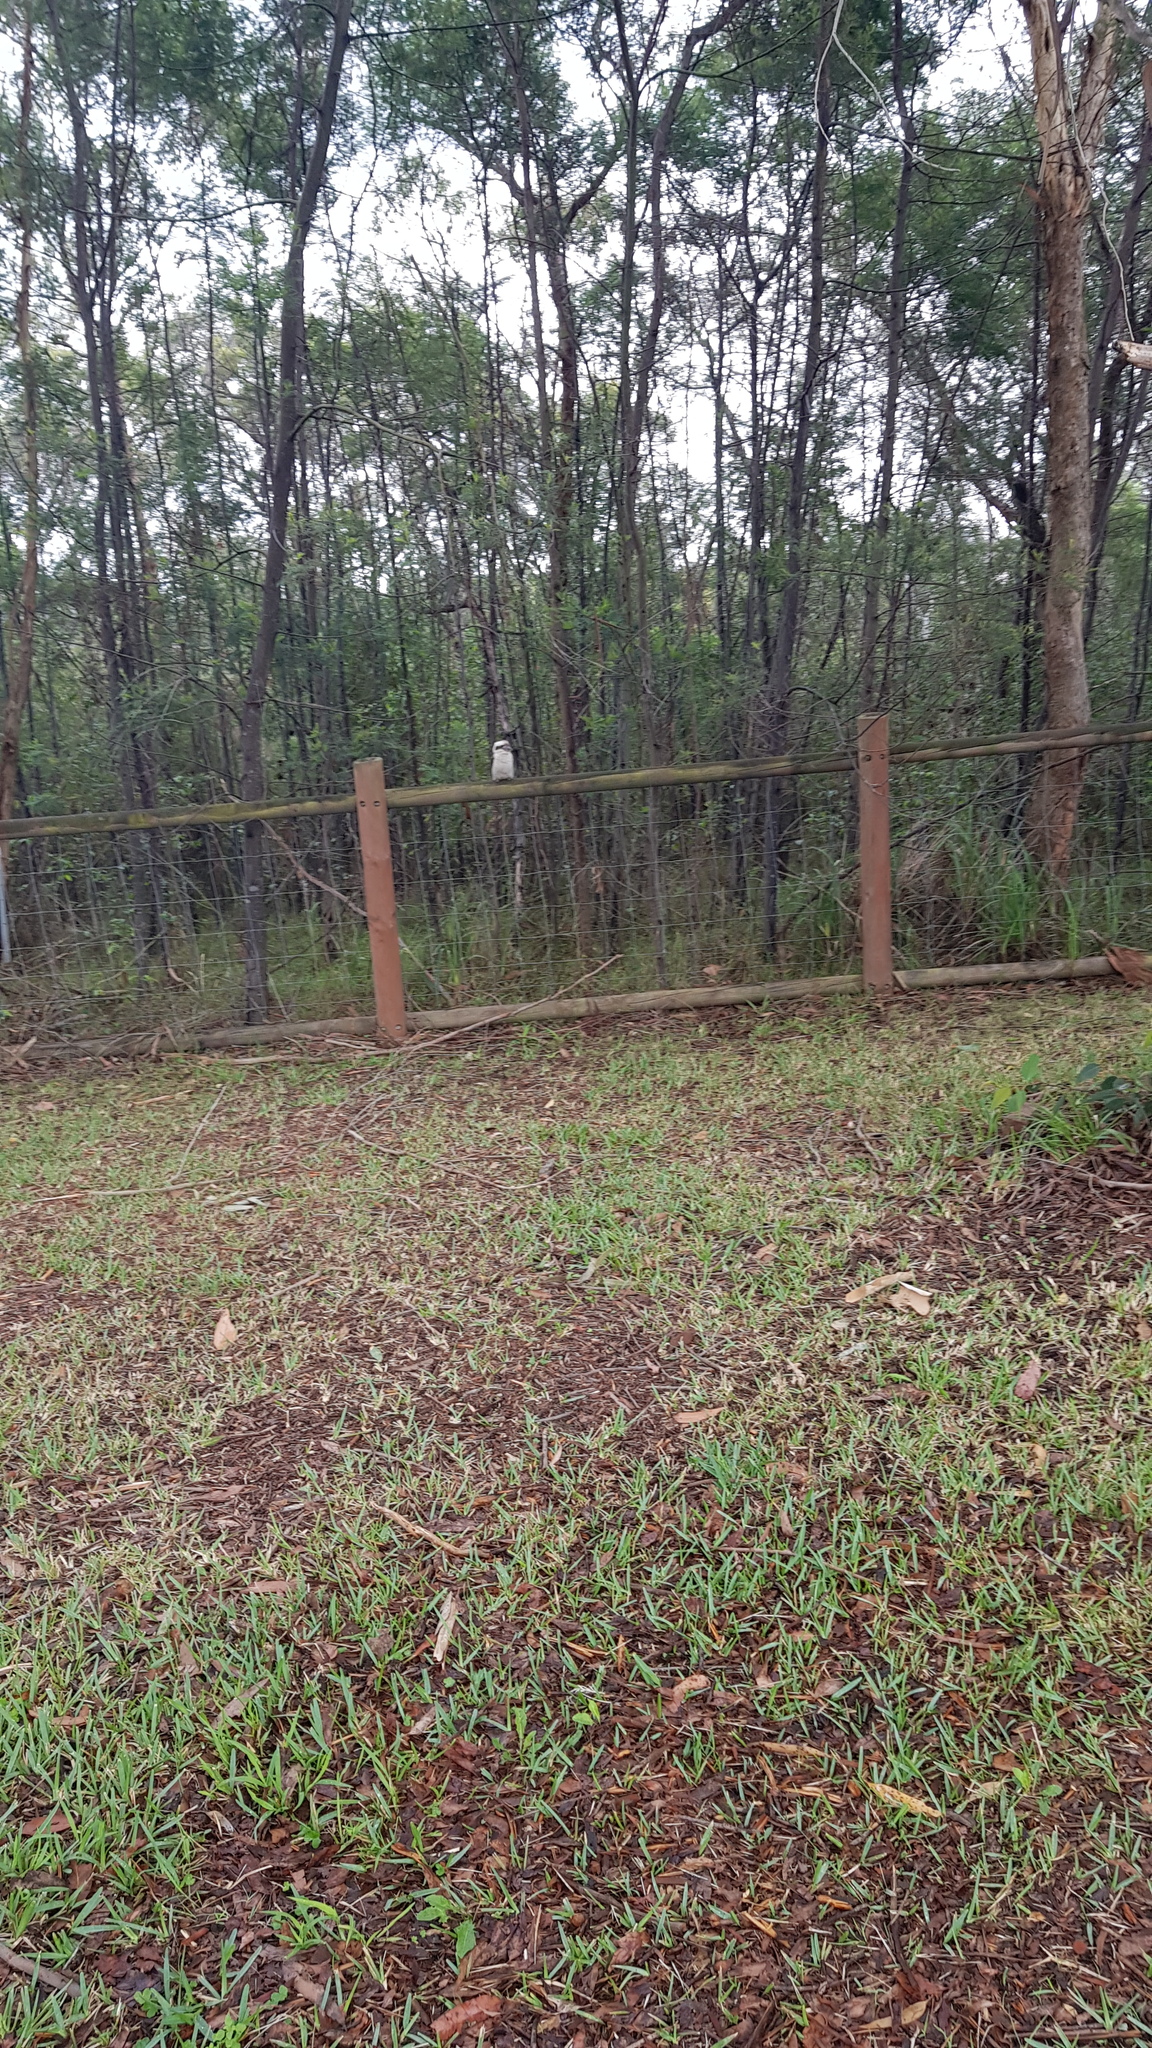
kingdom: Animalia
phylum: Chordata
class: Aves
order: Coraciiformes
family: Alcedinidae
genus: Dacelo
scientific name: Dacelo novaeguineae
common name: Laughing kookaburra
